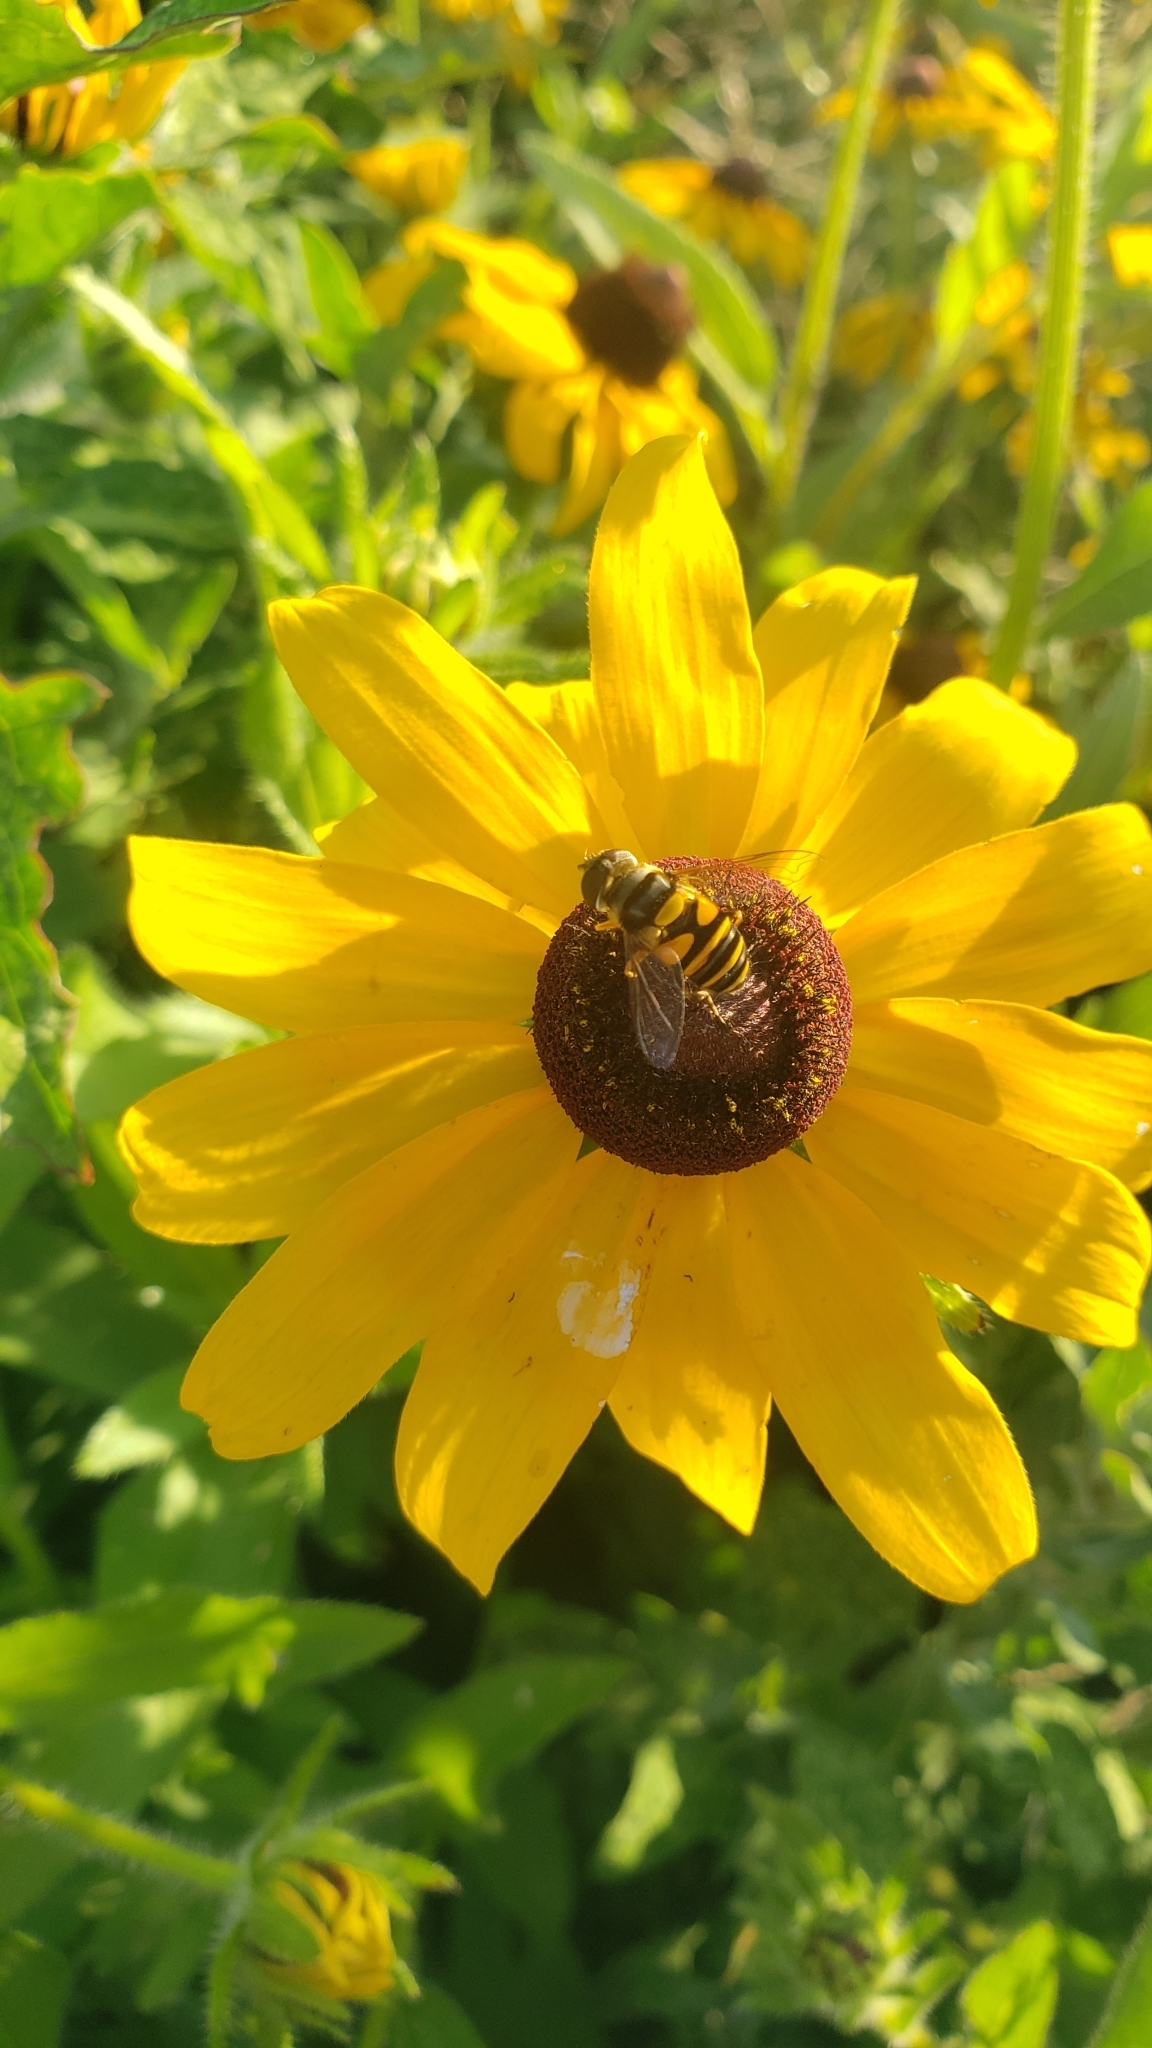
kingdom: Animalia
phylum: Arthropoda
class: Insecta
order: Diptera
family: Syrphidae
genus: Eristalis
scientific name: Eristalis transversa
